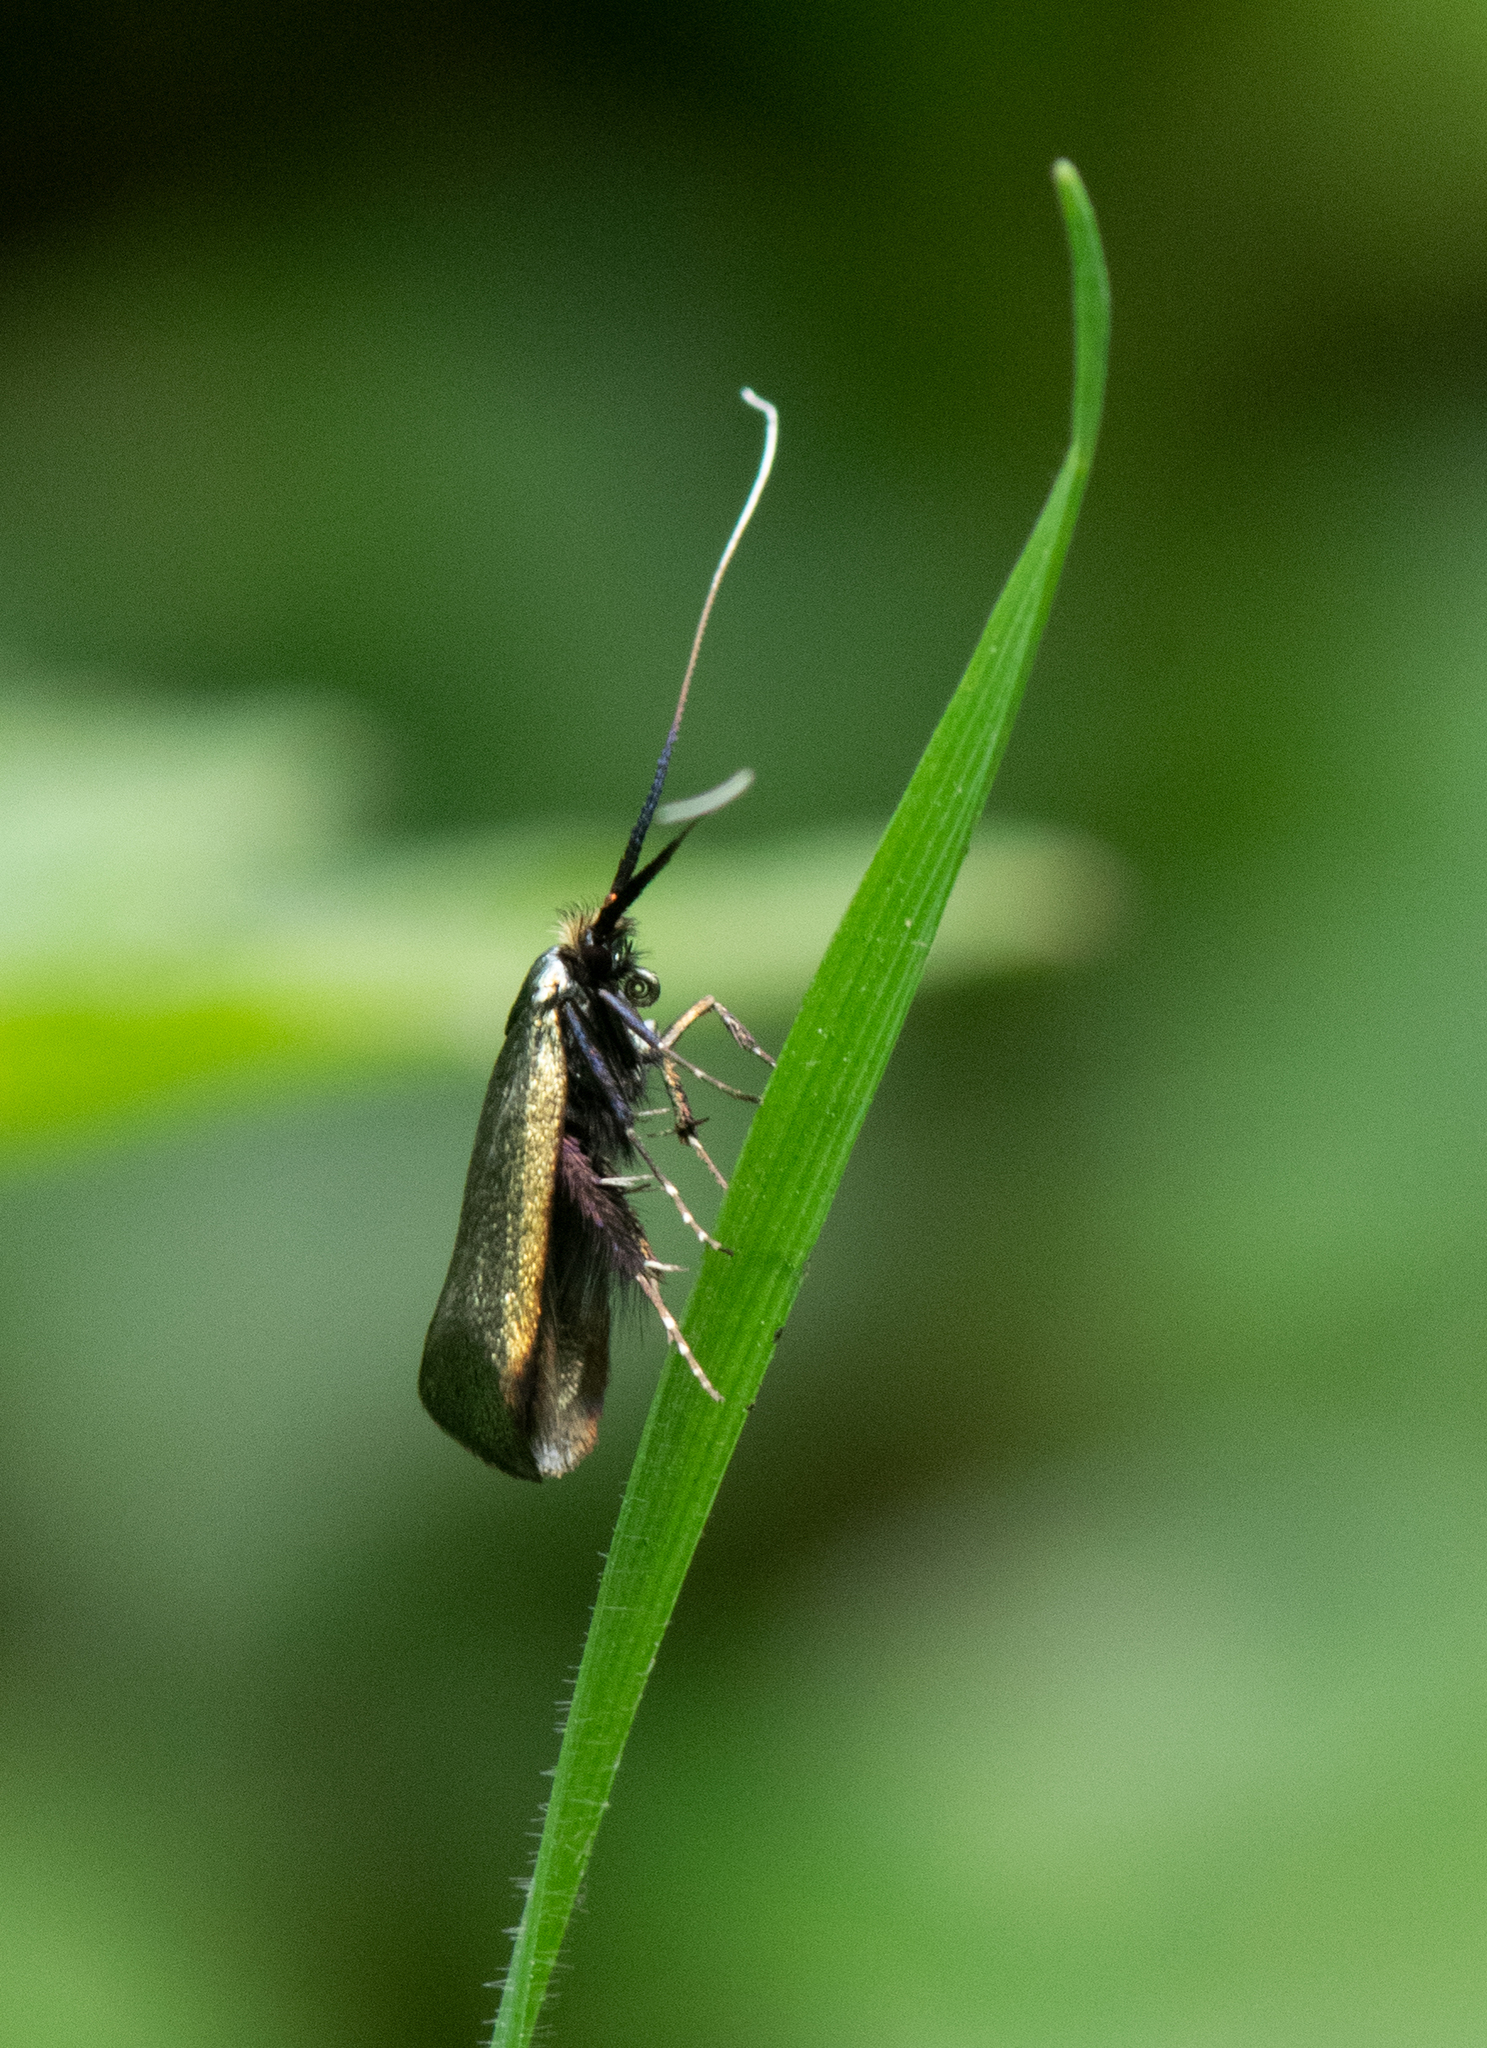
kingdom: Animalia
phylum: Arthropoda
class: Insecta
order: Lepidoptera
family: Adelidae
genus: Adela
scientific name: Adela viridella
